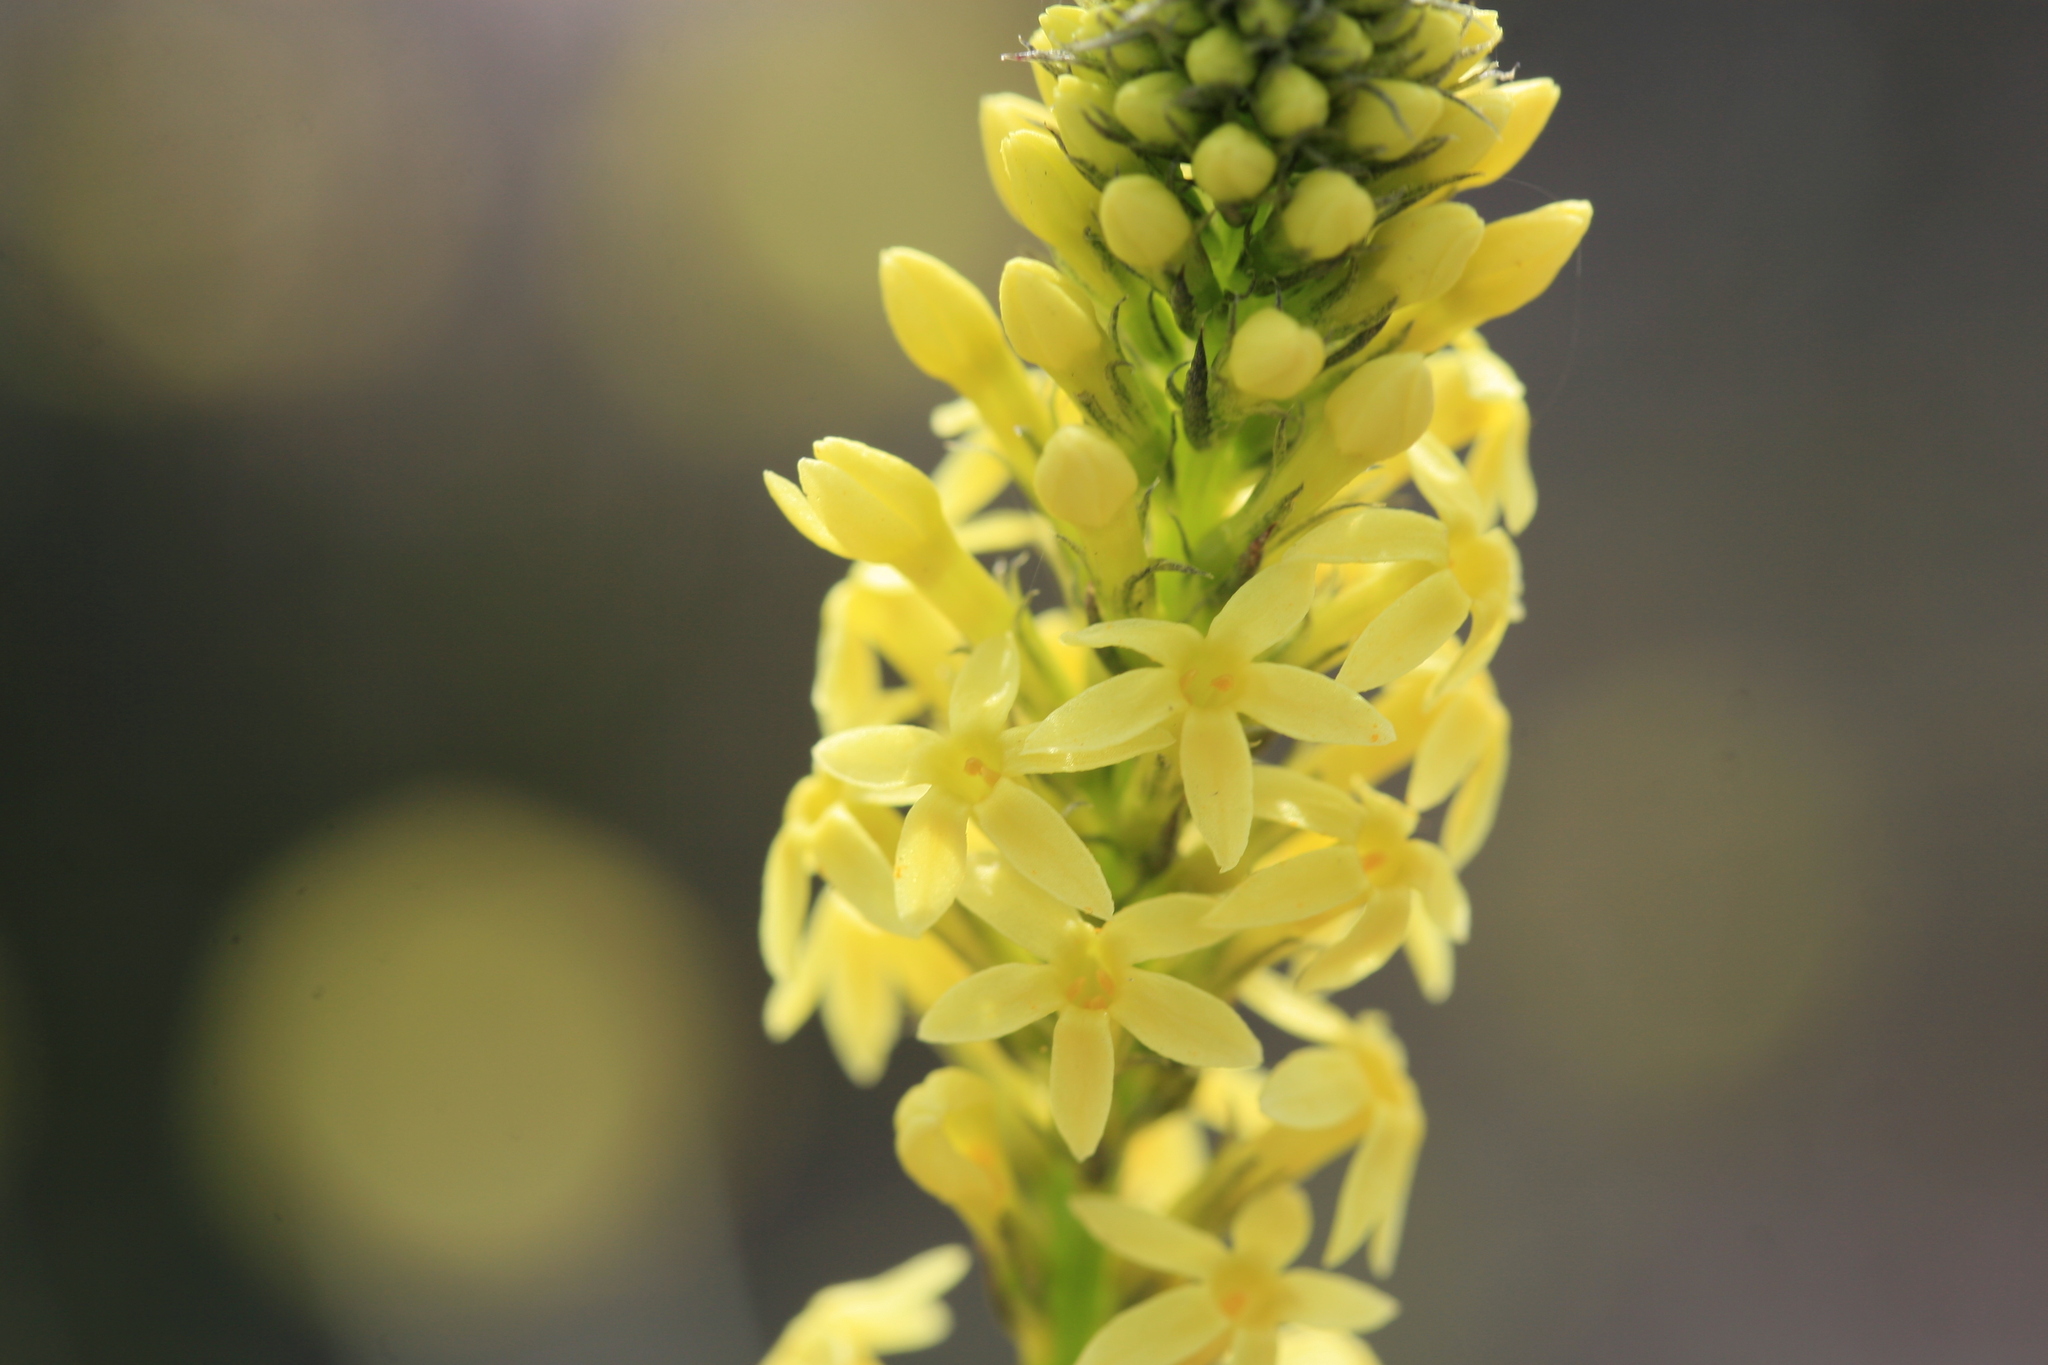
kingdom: Plantae
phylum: Tracheophyta
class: Magnoliopsida
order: Celastrales
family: Celastraceae
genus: Stackhousia
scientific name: Stackhousia dielsii
